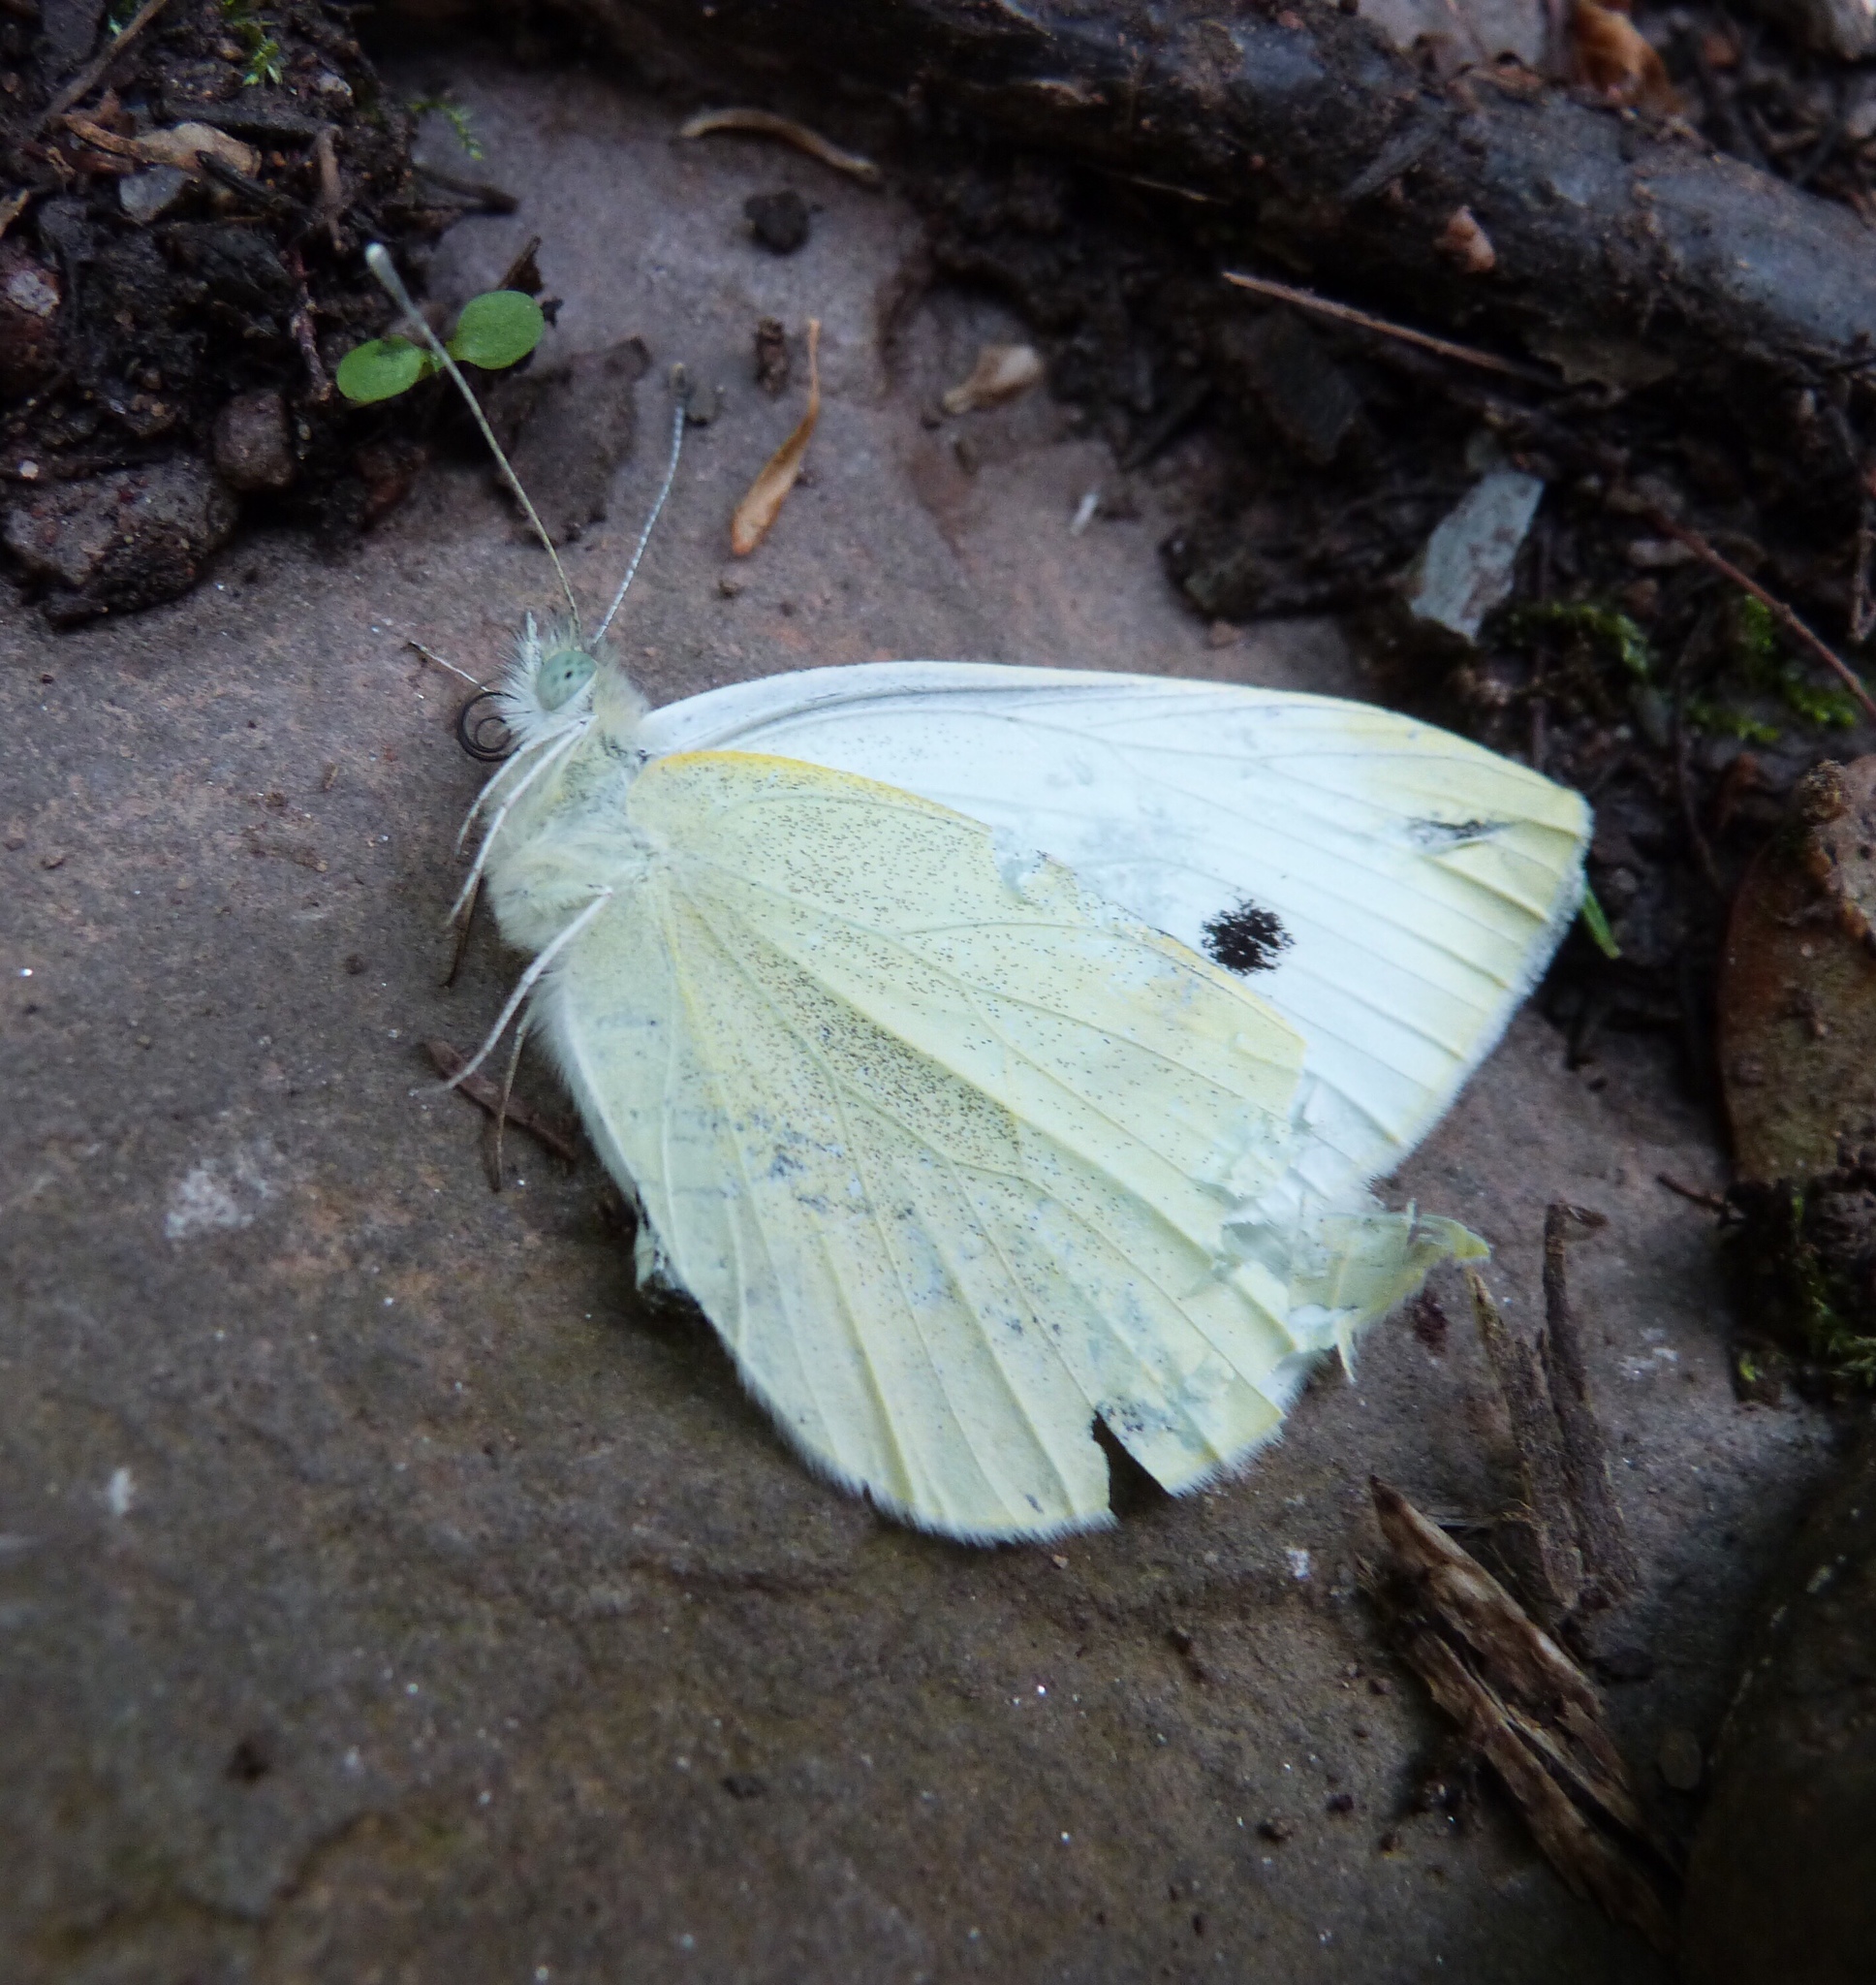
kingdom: Animalia
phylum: Arthropoda
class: Insecta
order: Lepidoptera
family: Pieridae
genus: Pieris
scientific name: Pieris rapae
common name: Small white
